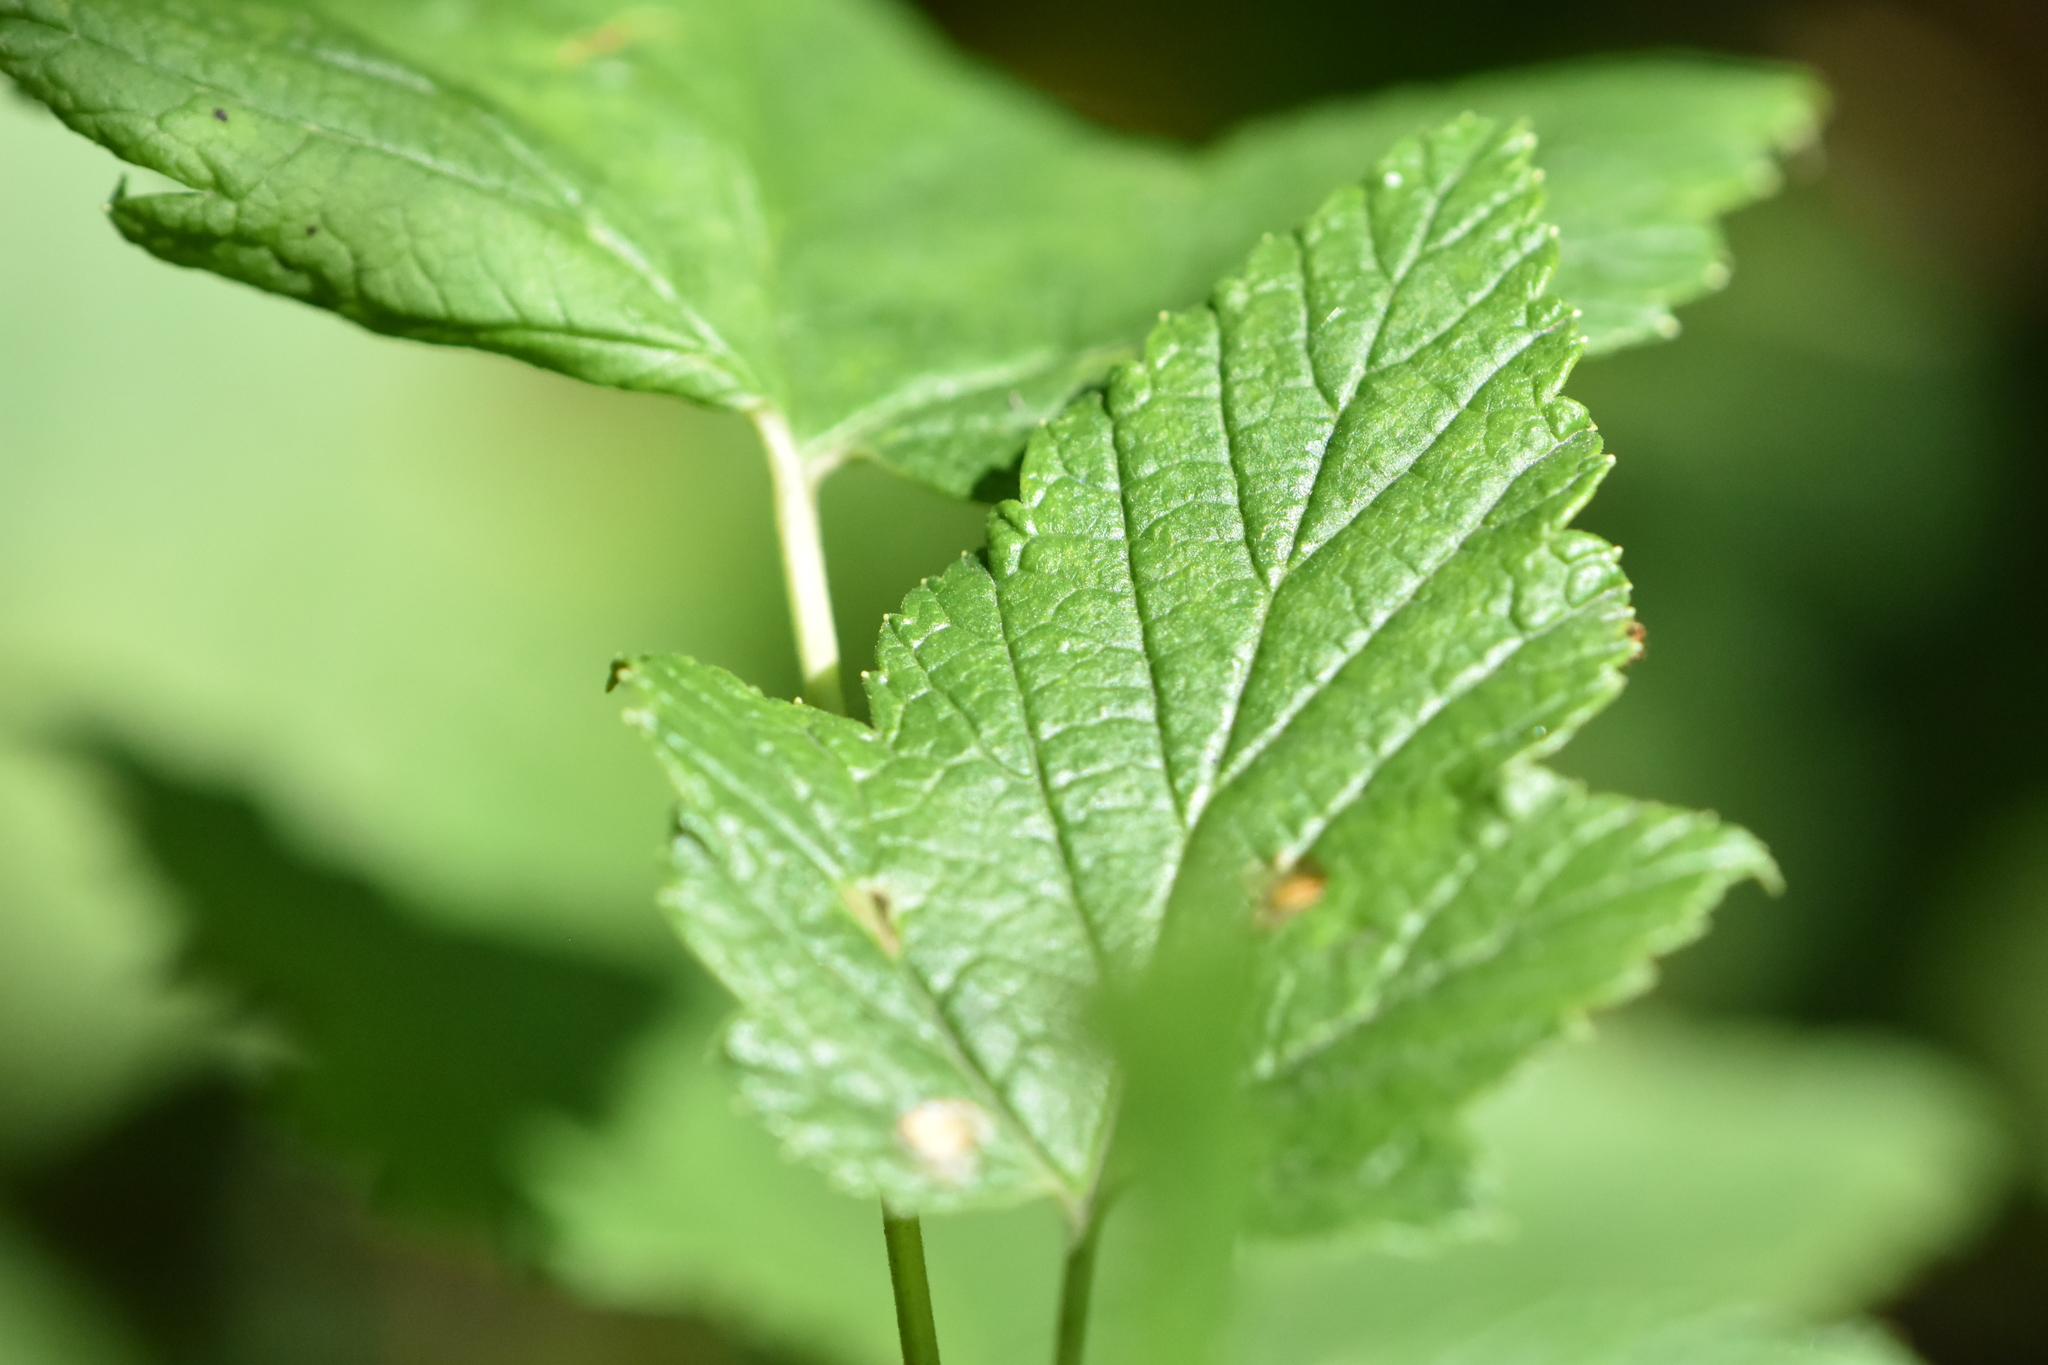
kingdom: Plantae
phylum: Tracheophyta
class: Magnoliopsida
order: Saxifragales
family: Grossulariaceae
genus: Ribes
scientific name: Ribes nigrum
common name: Black currant
